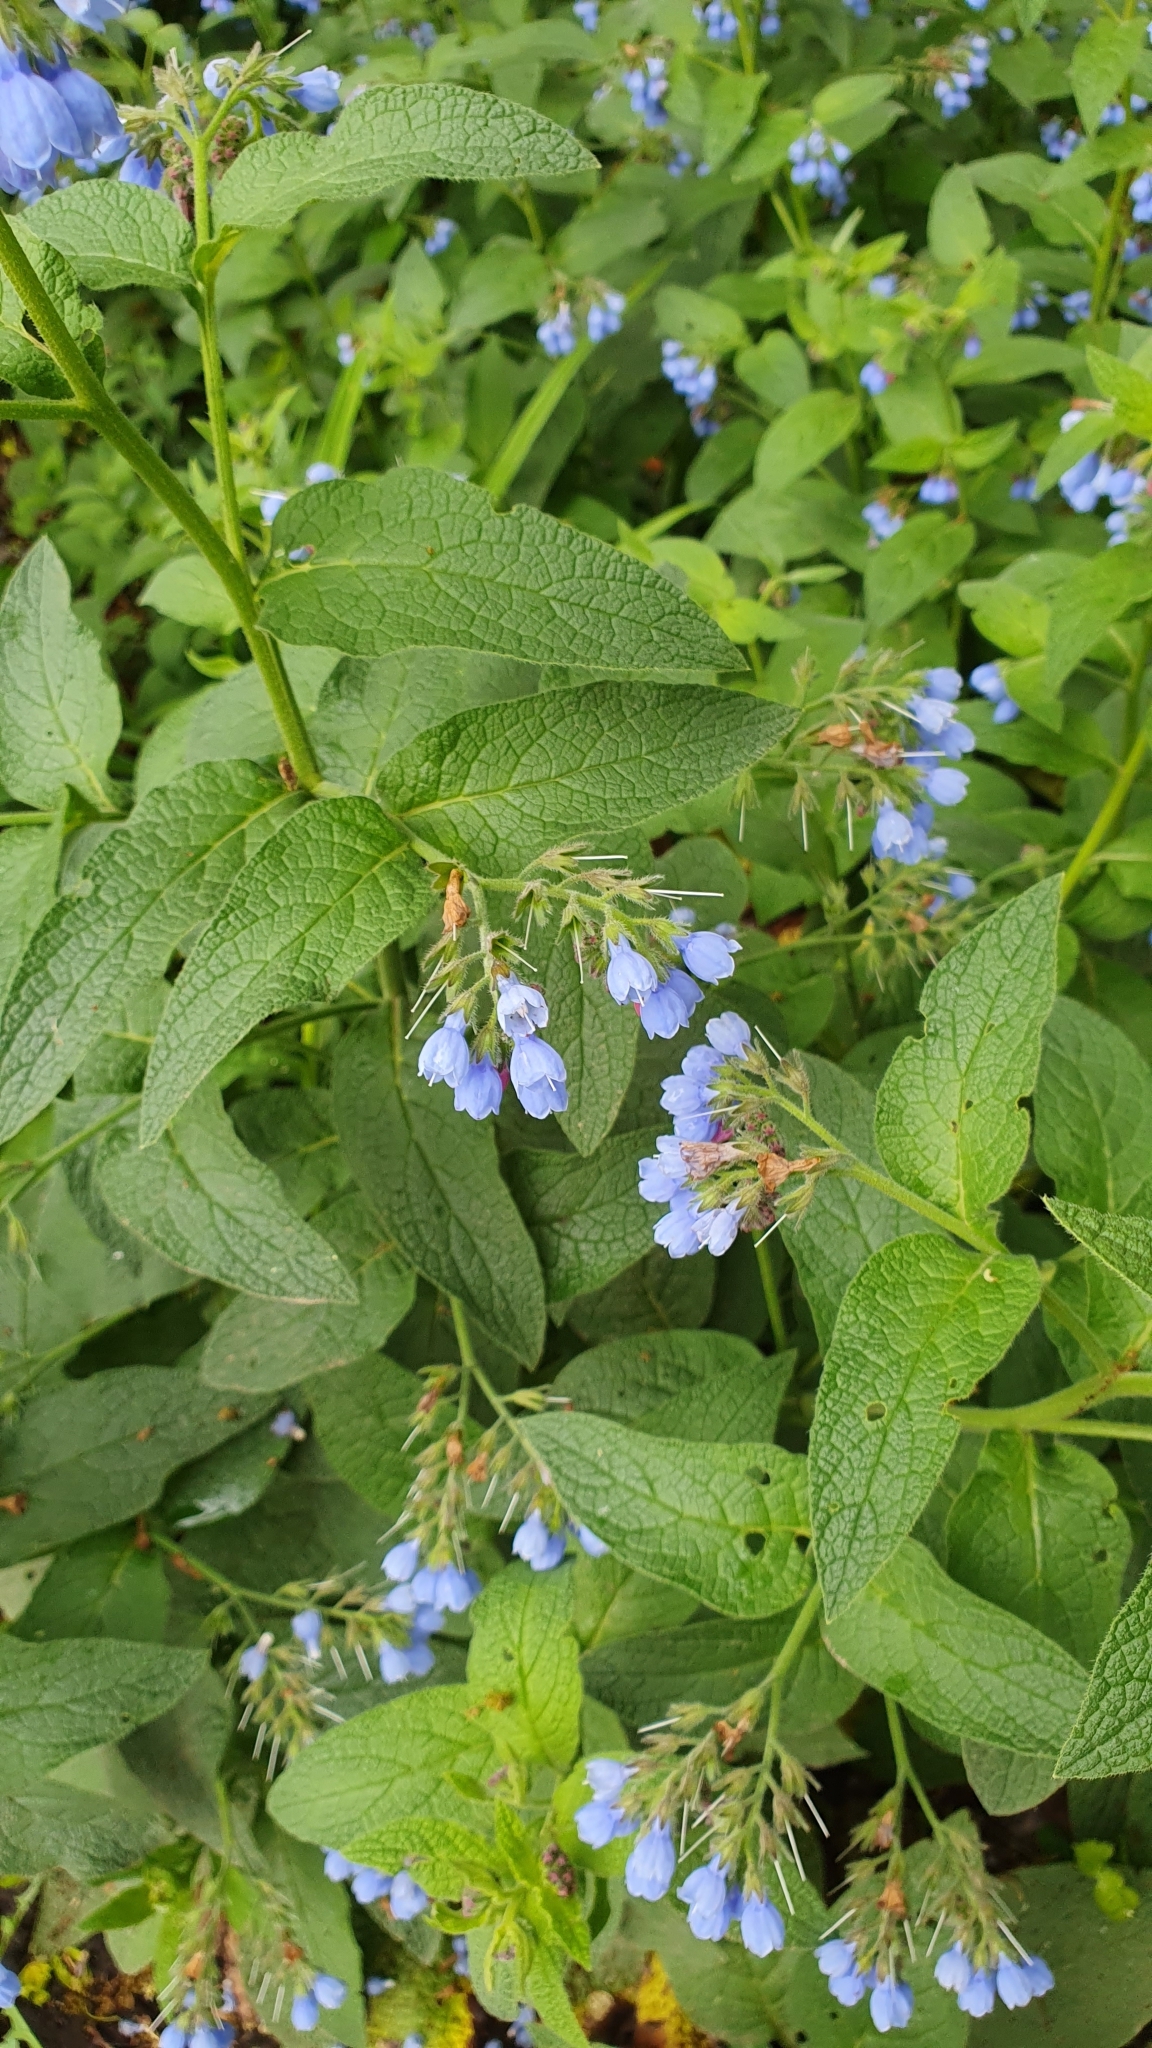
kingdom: Plantae
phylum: Tracheophyta
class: Magnoliopsida
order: Boraginales
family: Boraginaceae
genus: Symphytum
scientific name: Symphytum caucasicum
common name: Caucasian comfrey
